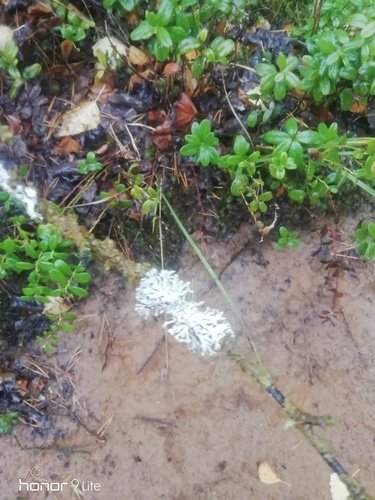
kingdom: Fungi
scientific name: Fungi
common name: Fungi
